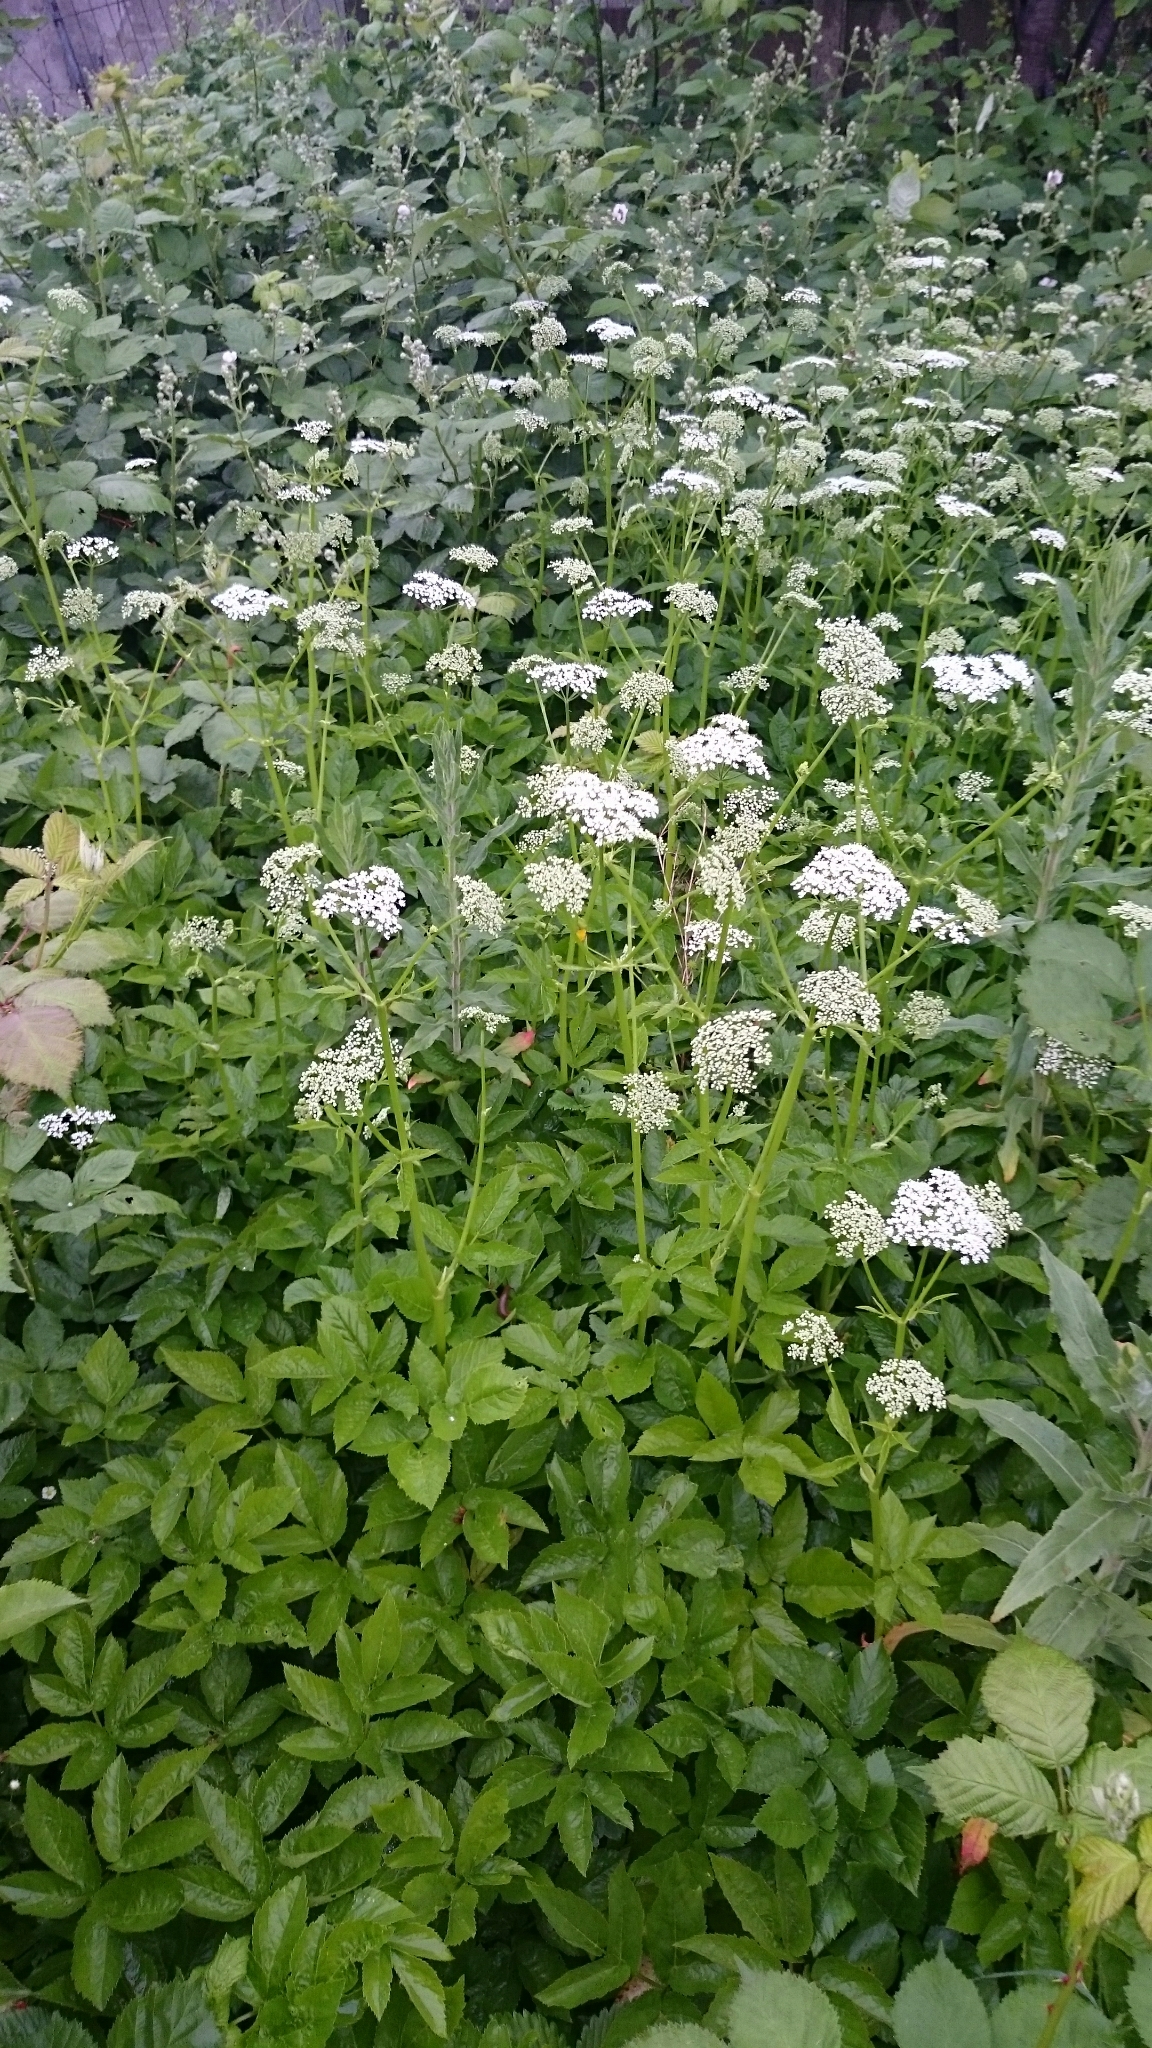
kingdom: Plantae
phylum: Tracheophyta
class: Magnoliopsida
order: Apiales
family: Apiaceae
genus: Aegopodium
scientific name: Aegopodium podagraria
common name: Ground-elder
